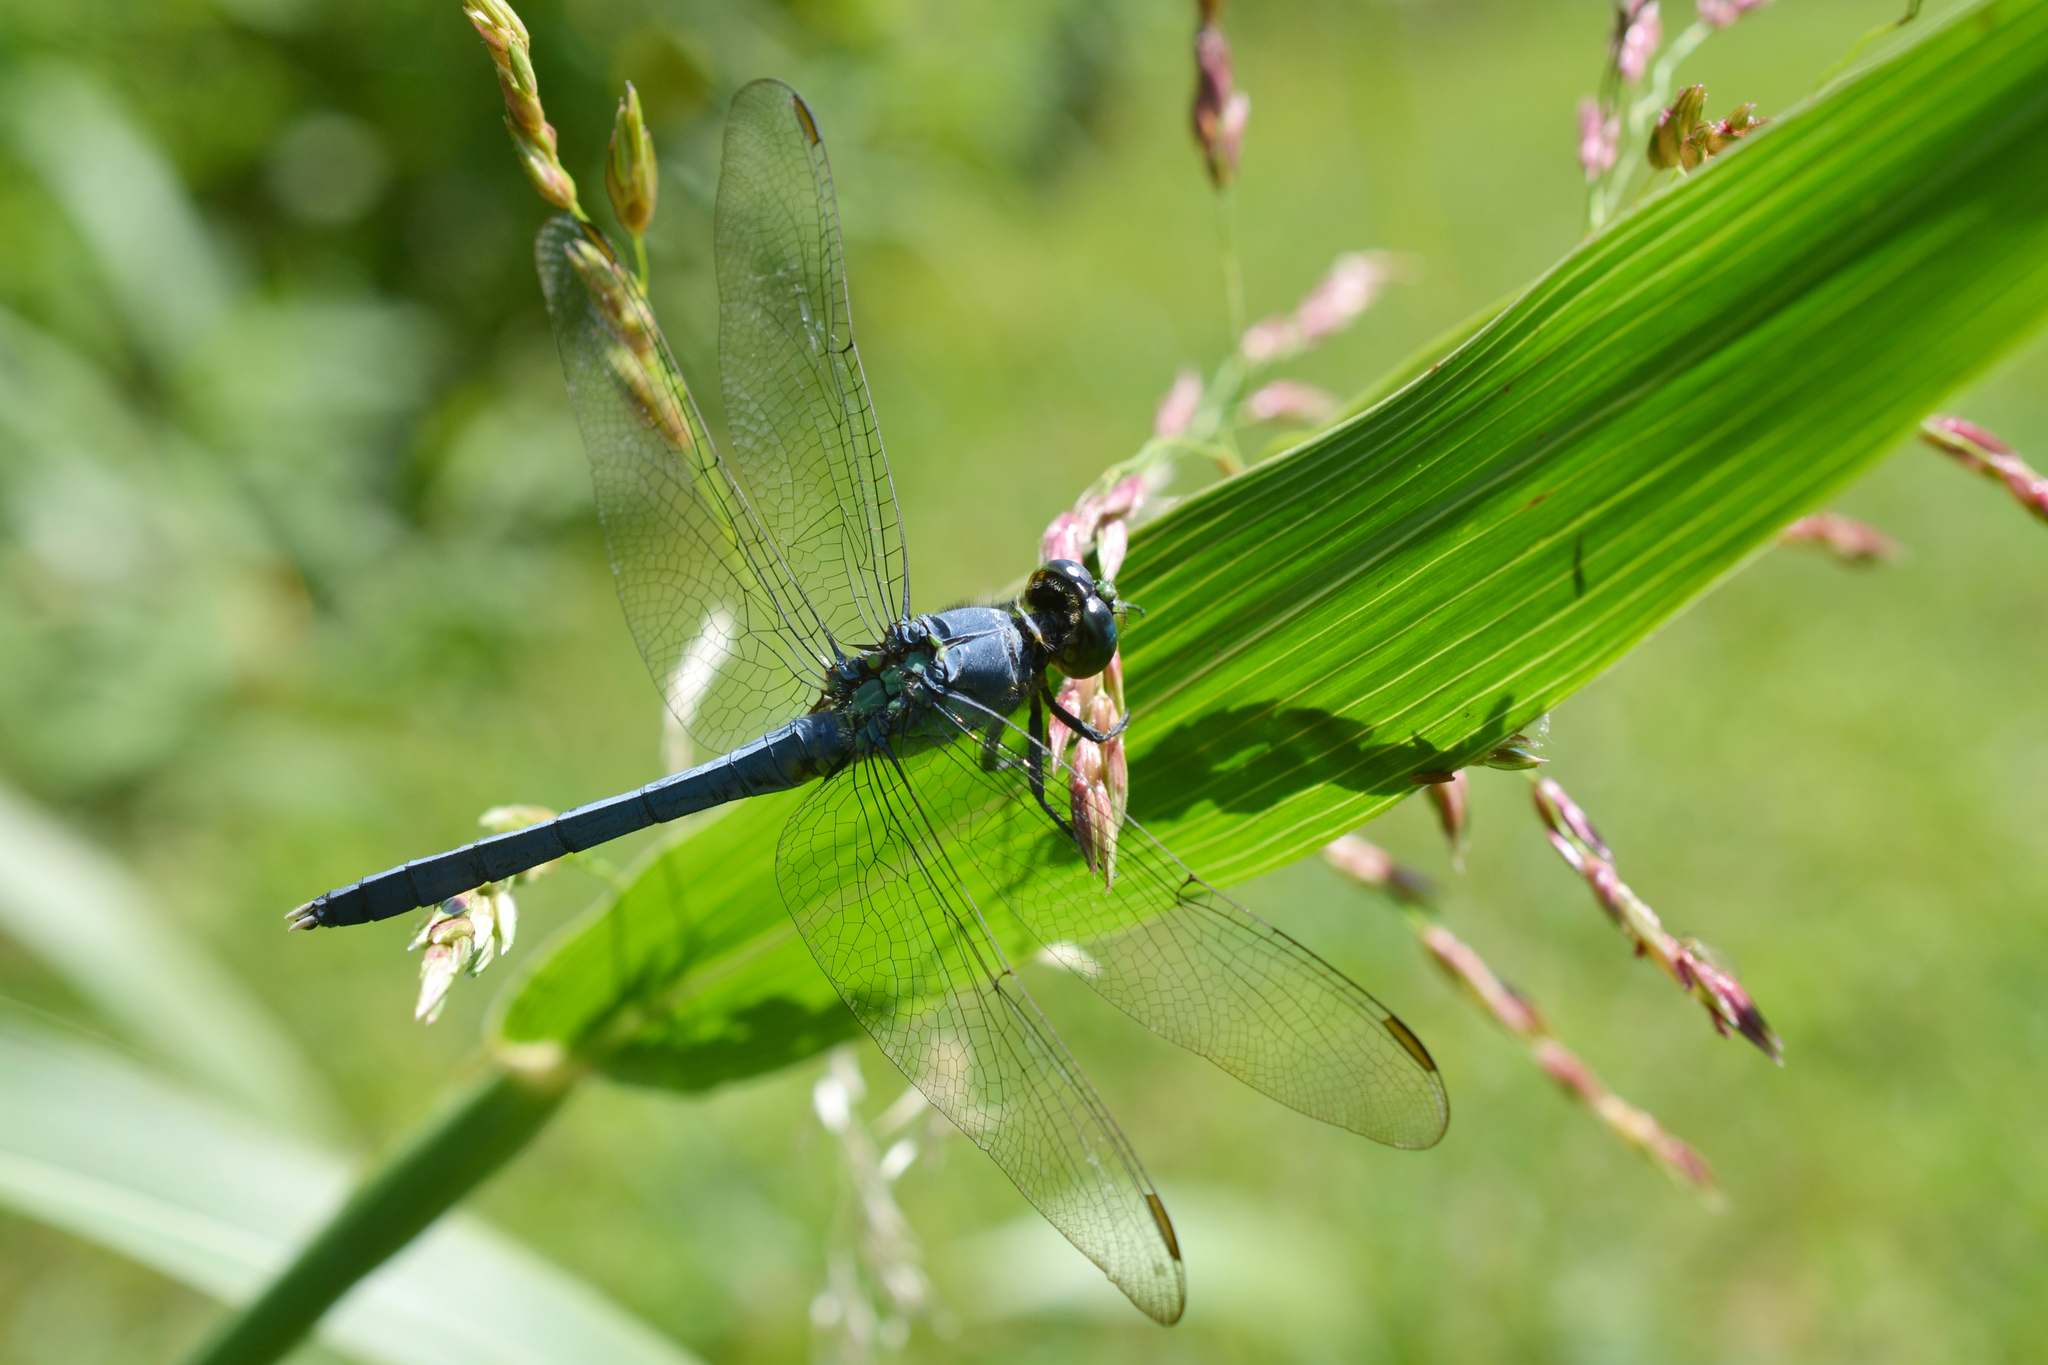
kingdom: Animalia
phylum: Arthropoda
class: Insecta
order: Odonata
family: Libellulidae
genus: Erythemis
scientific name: Erythemis simplicicollis
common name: Eastern pondhawk
